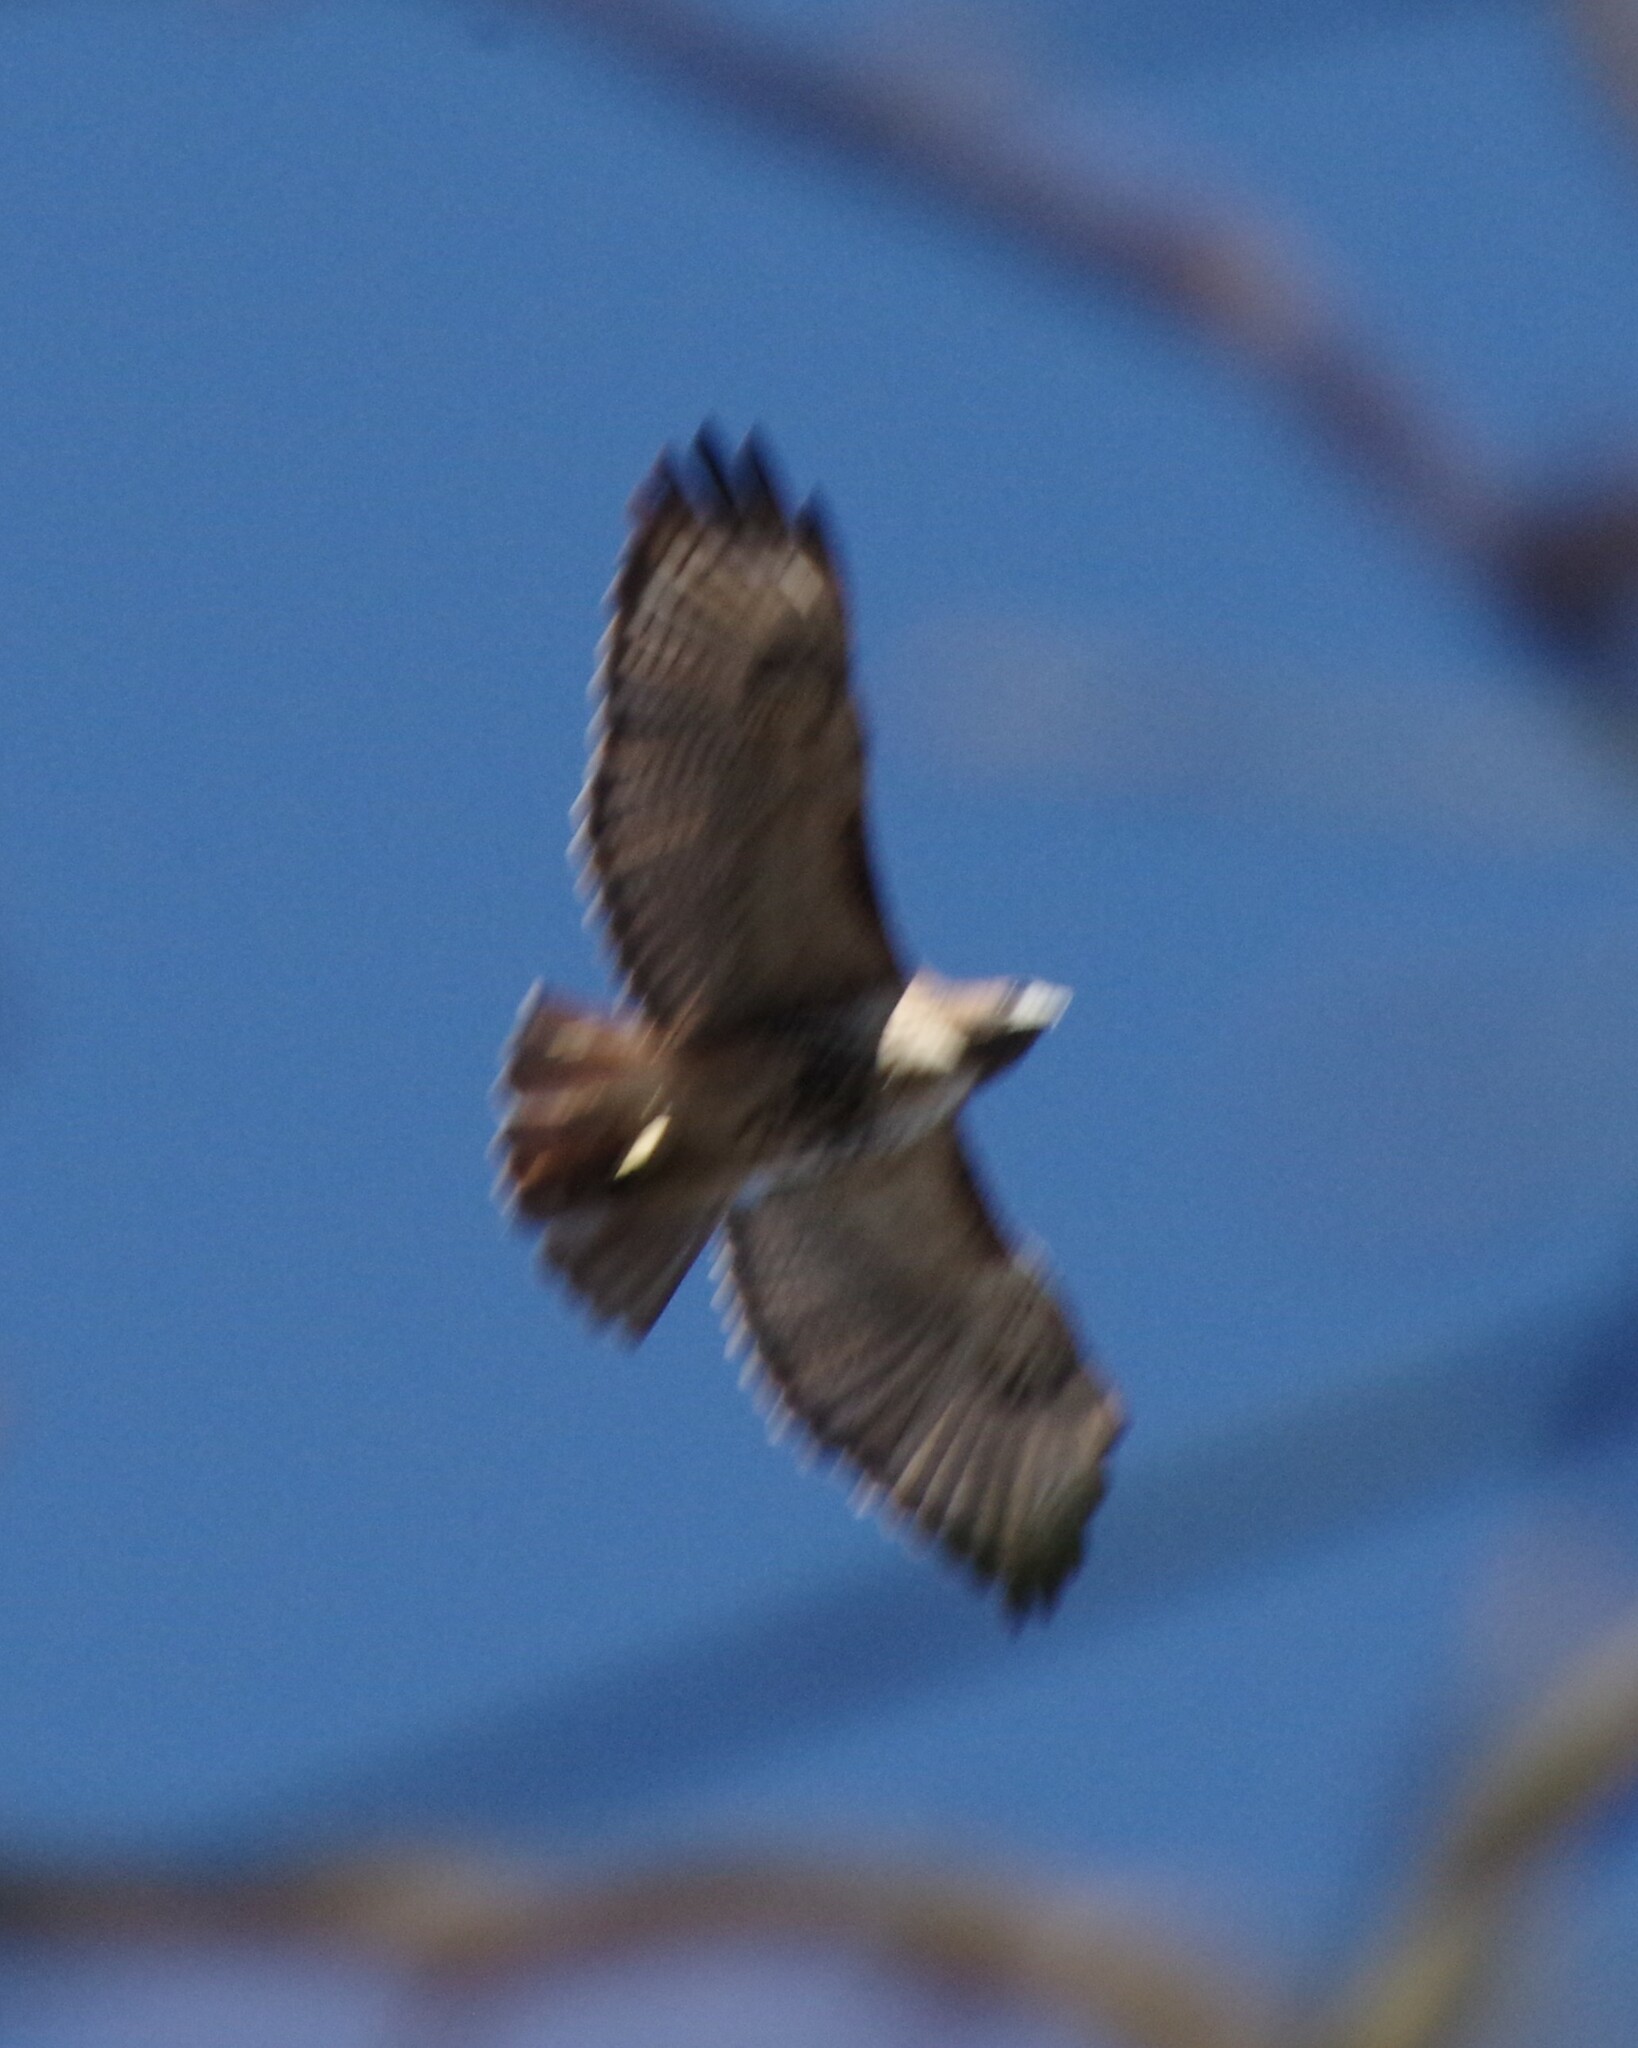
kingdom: Animalia
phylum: Chordata
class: Aves
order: Accipitriformes
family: Accipitridae
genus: Buteo
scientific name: Buteo jamaicensis
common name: Red-tailed hawk
